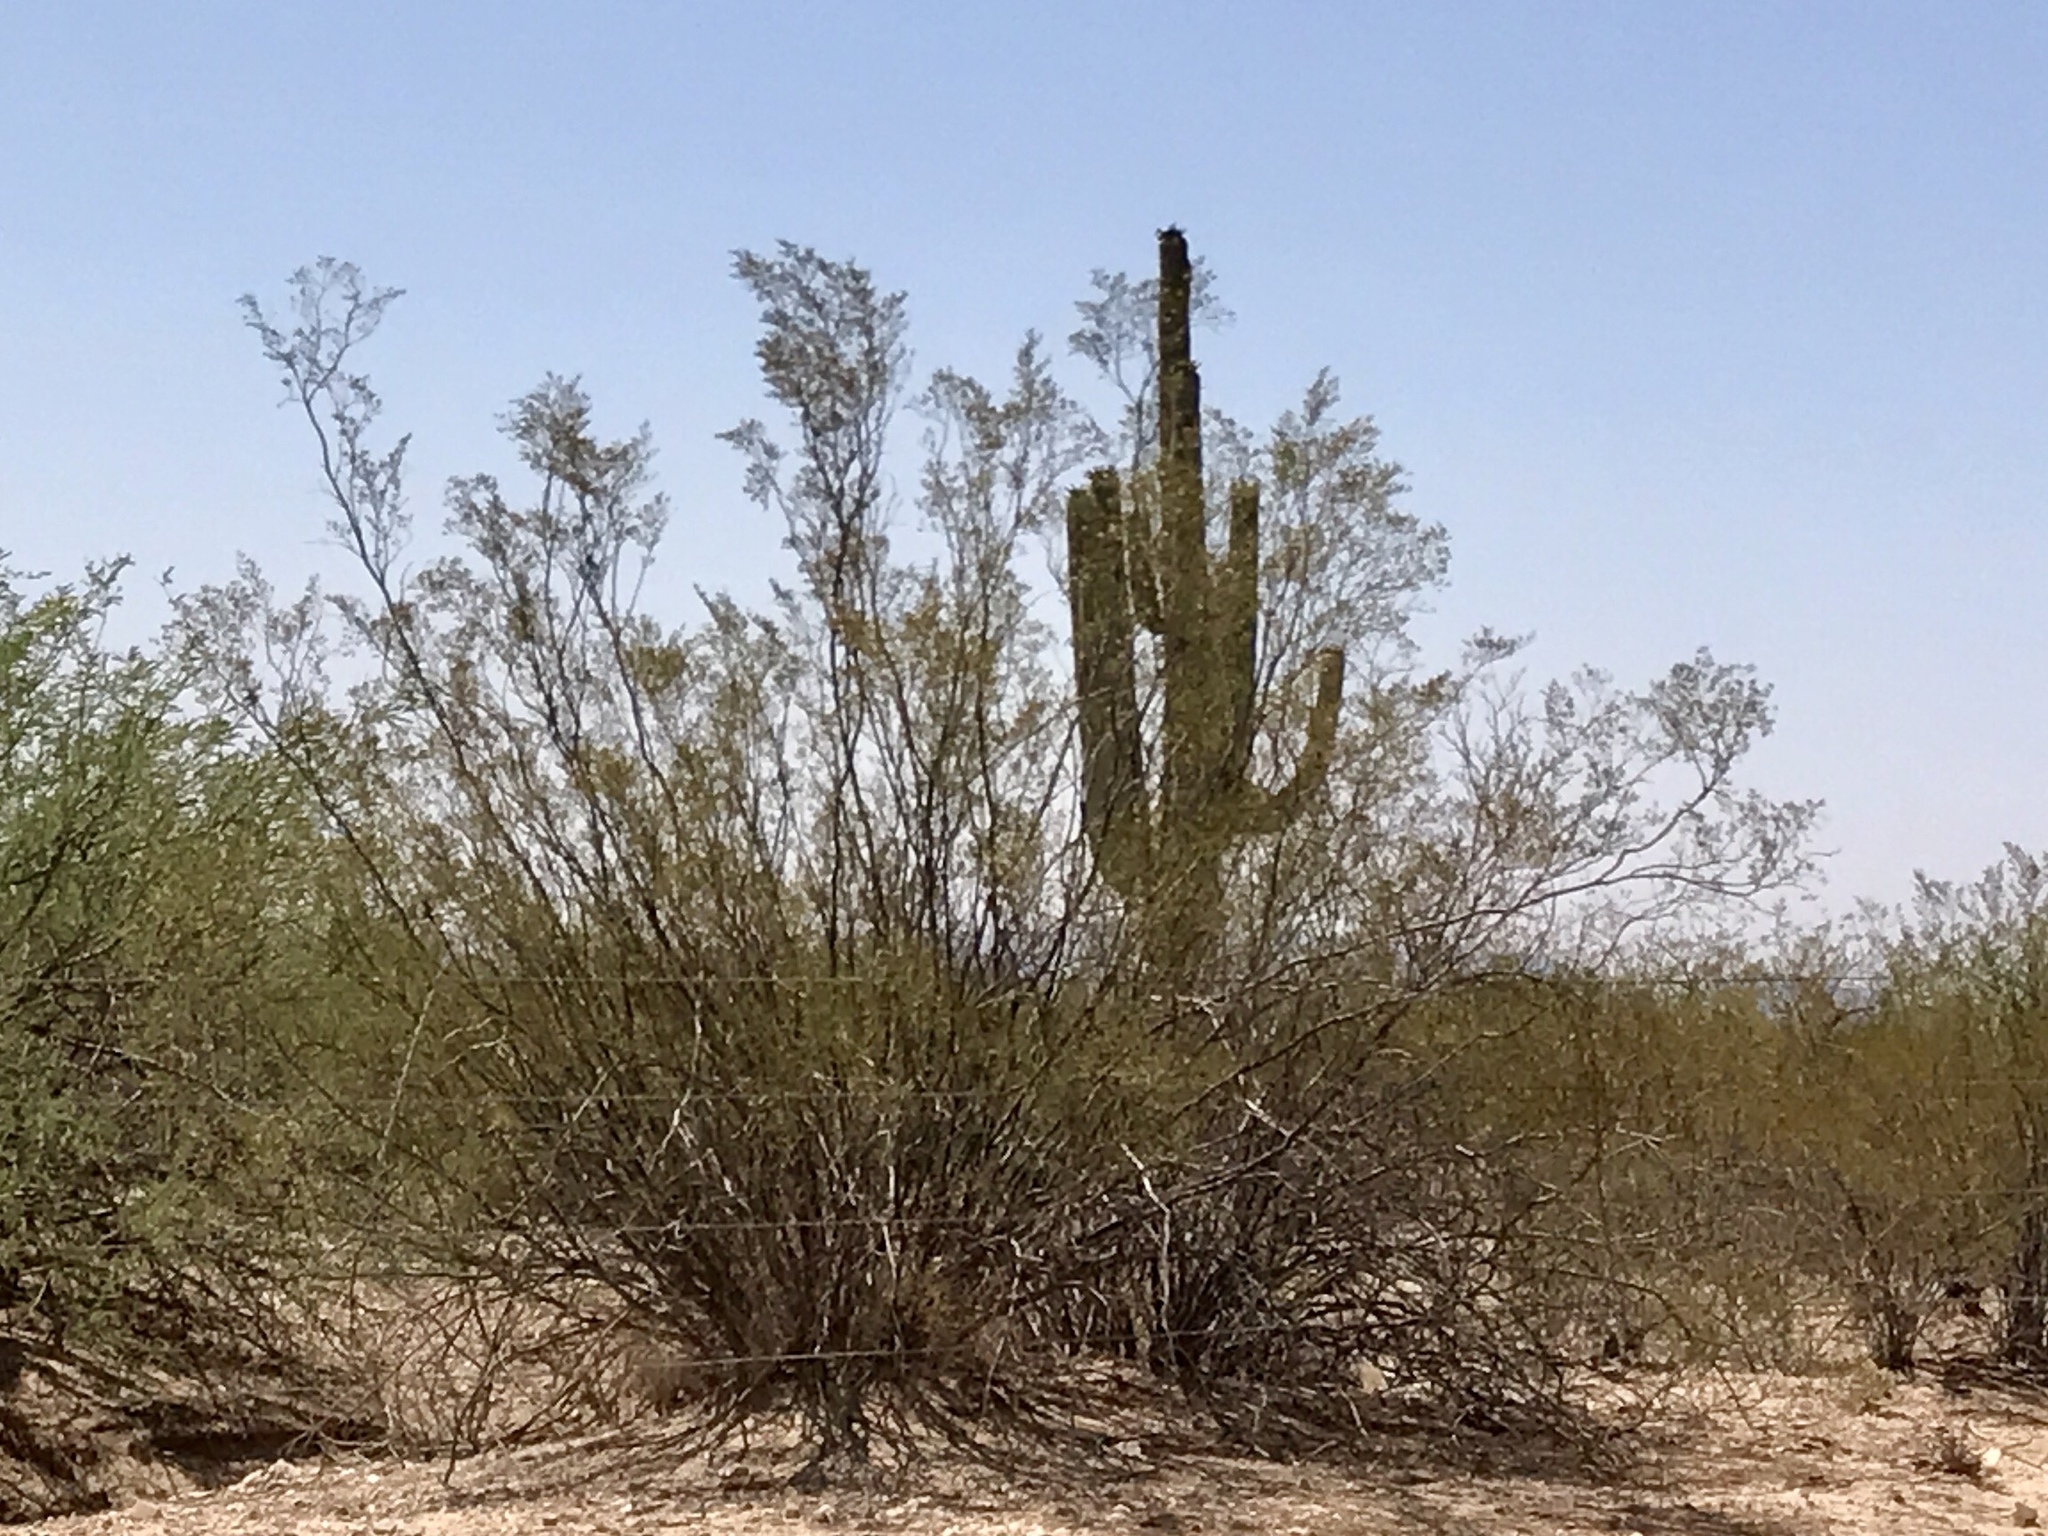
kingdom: Plantae
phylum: Tracheophyta
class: Magnoliopsida
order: Zygophyllales
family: Zygophyllaceae
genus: Larrea
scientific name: Larrea tridentata
